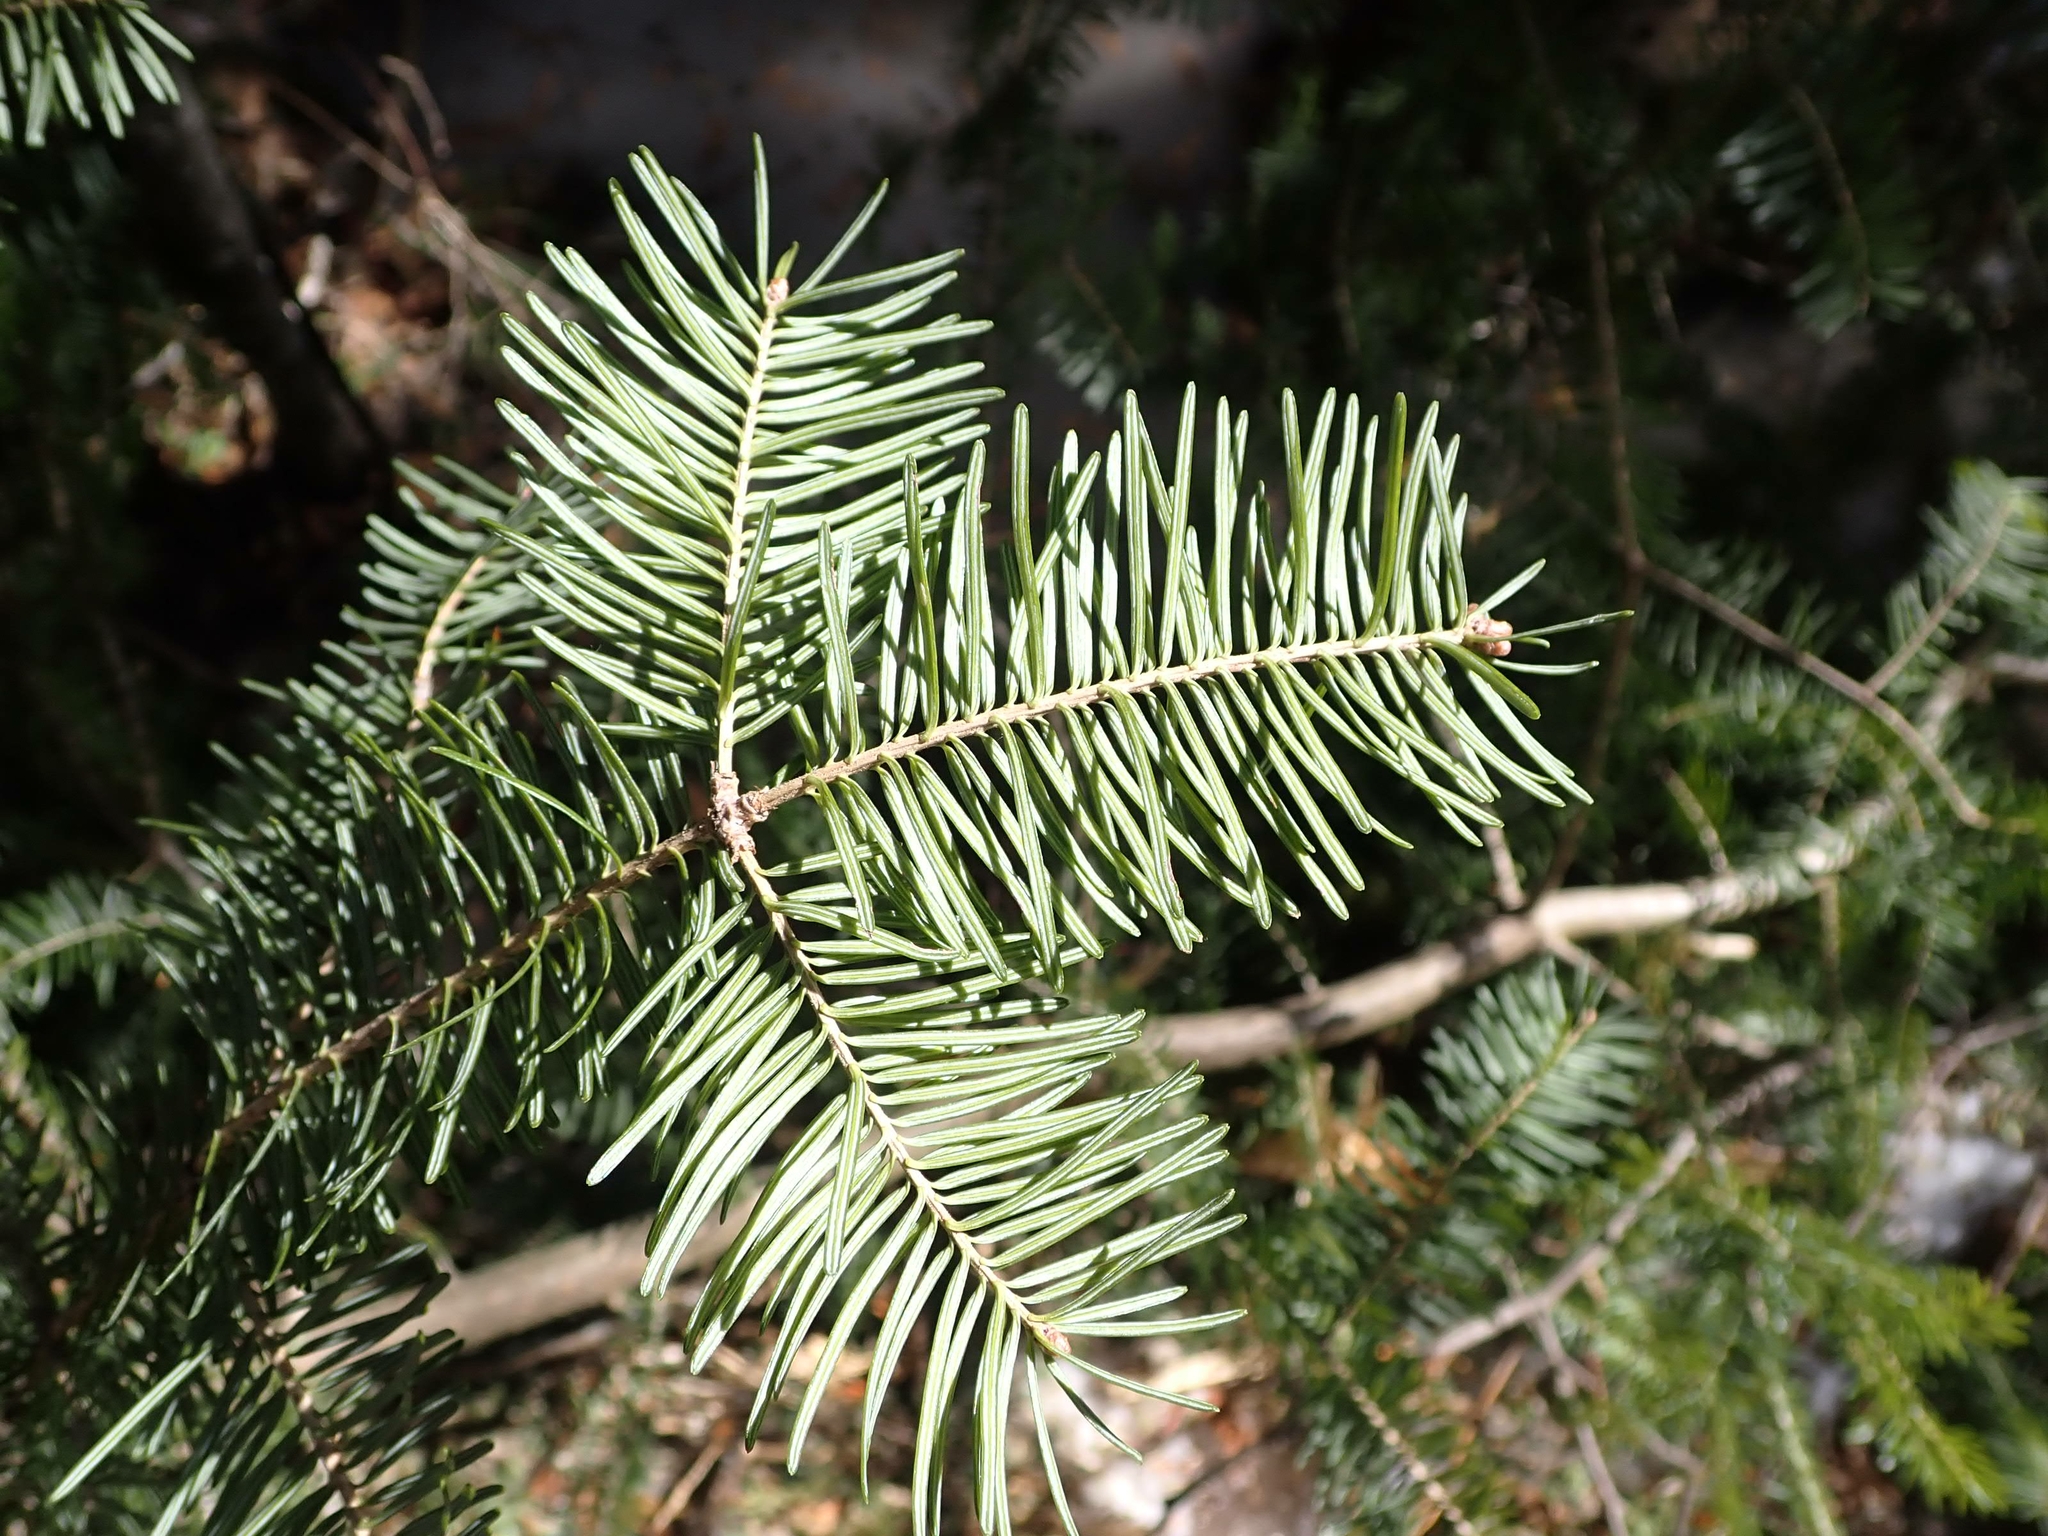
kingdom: Plantae
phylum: Tracheophyta
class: Pinopsida
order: Pinales
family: Pinaceae
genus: Abies
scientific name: Abies balsamea
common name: Balsam fir
